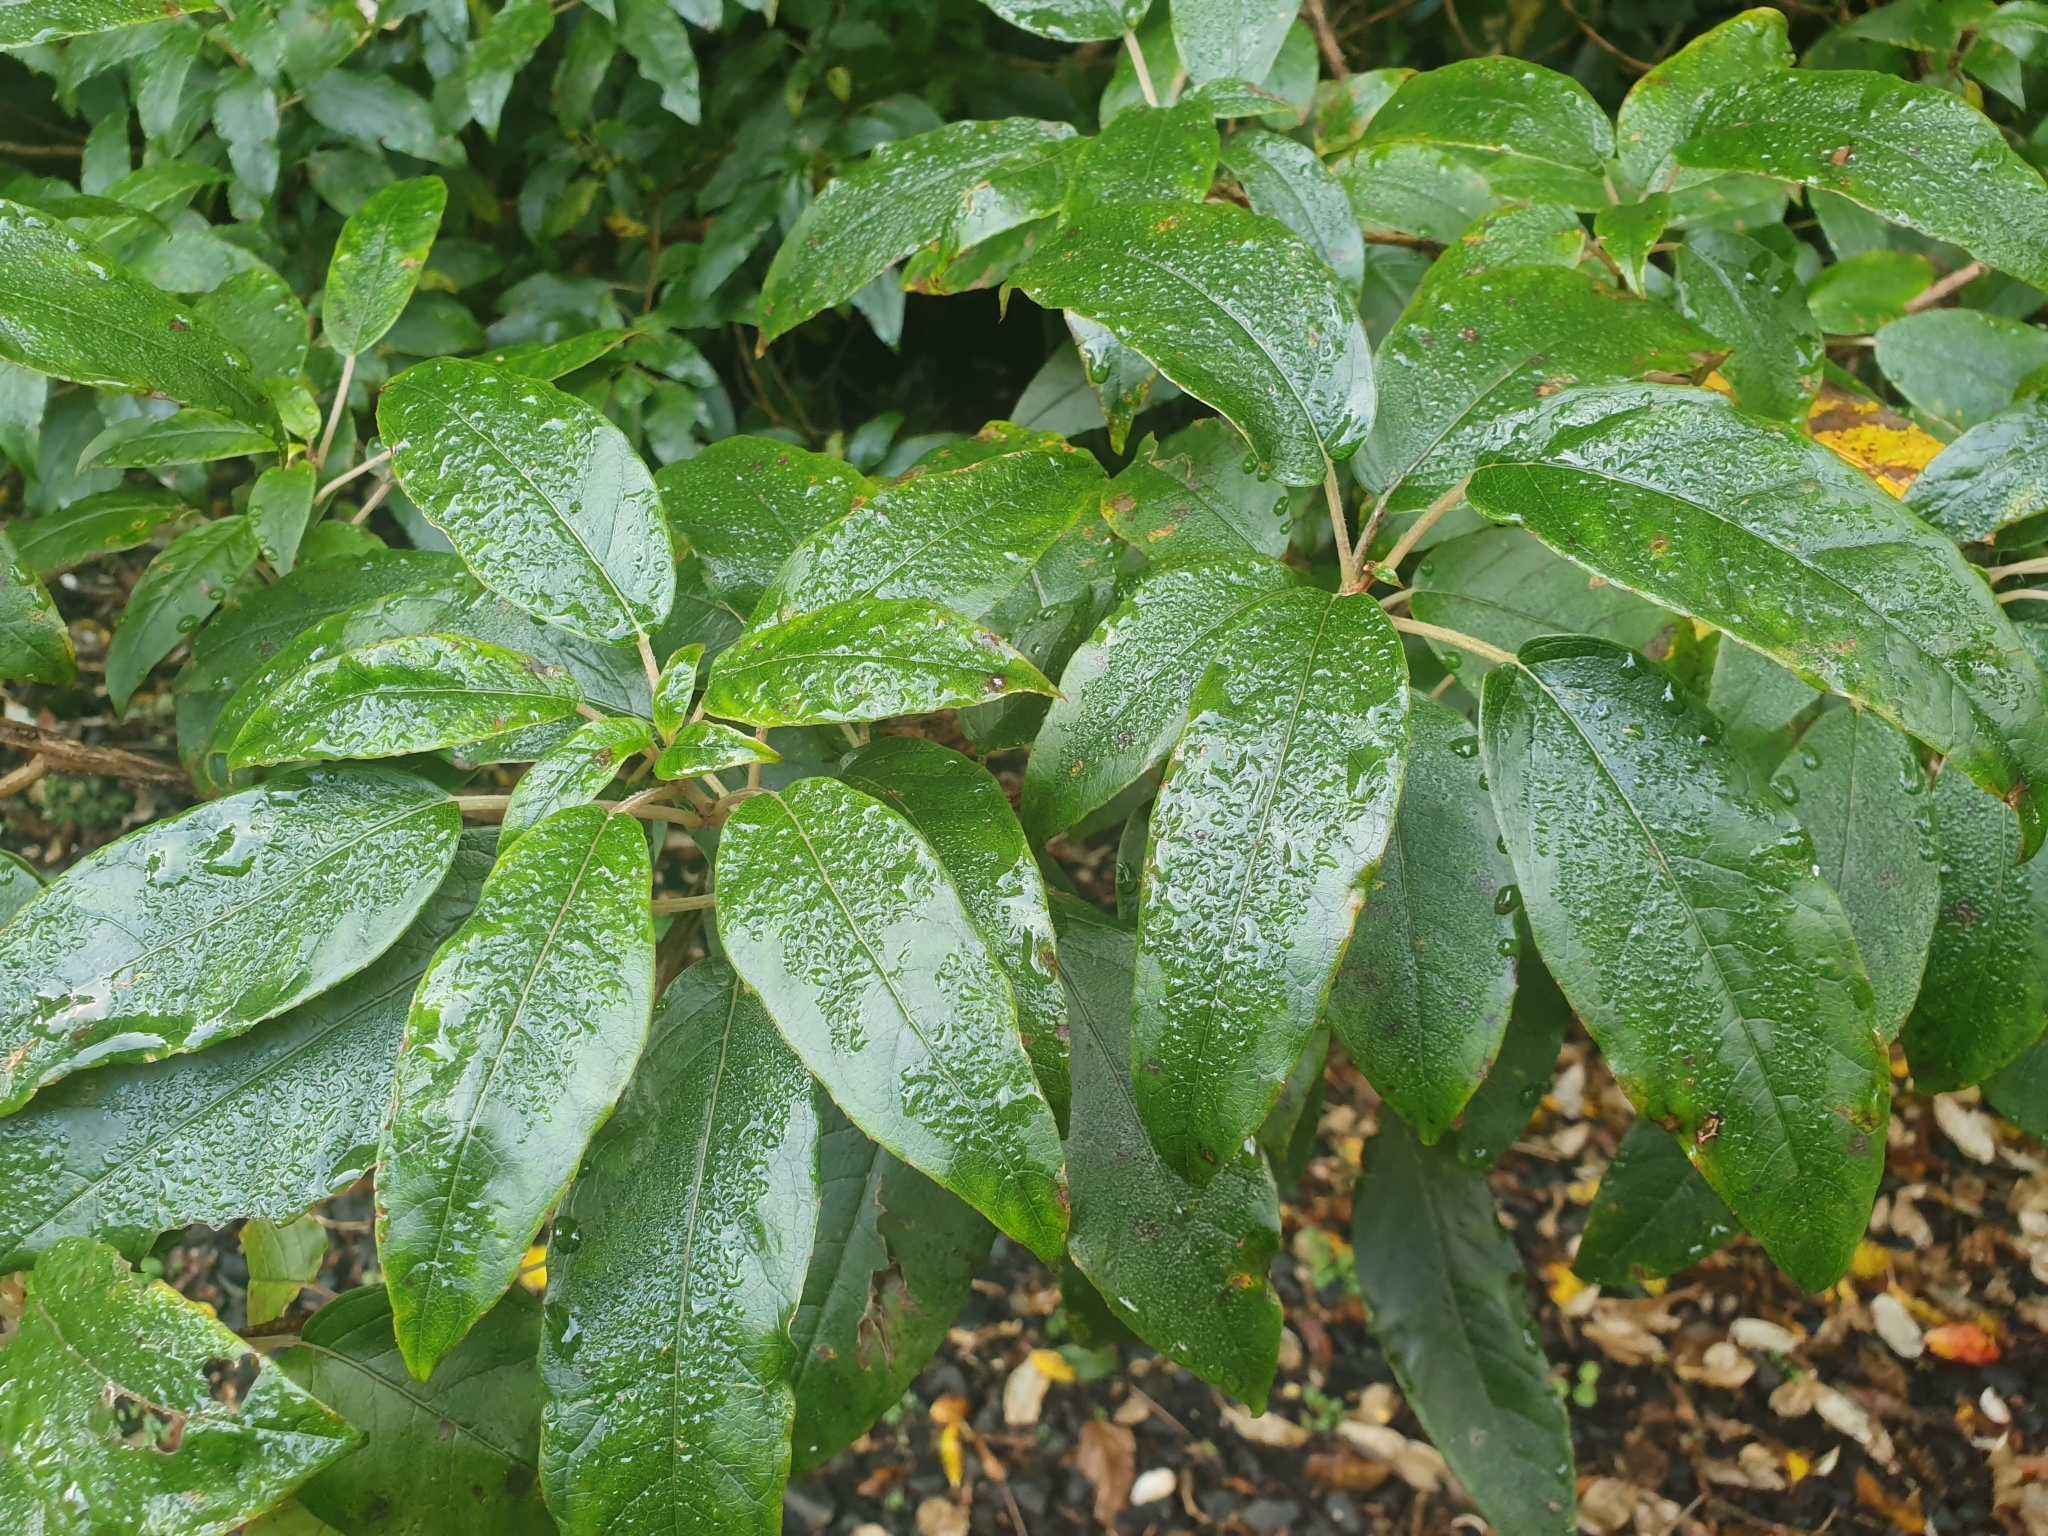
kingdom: Plantae
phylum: Tracheophyta
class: Magnoliopsida
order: Myrtales
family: Onagraceae
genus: Fuchsia
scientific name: Fuchsia excorticata
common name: Tree fuchsia
